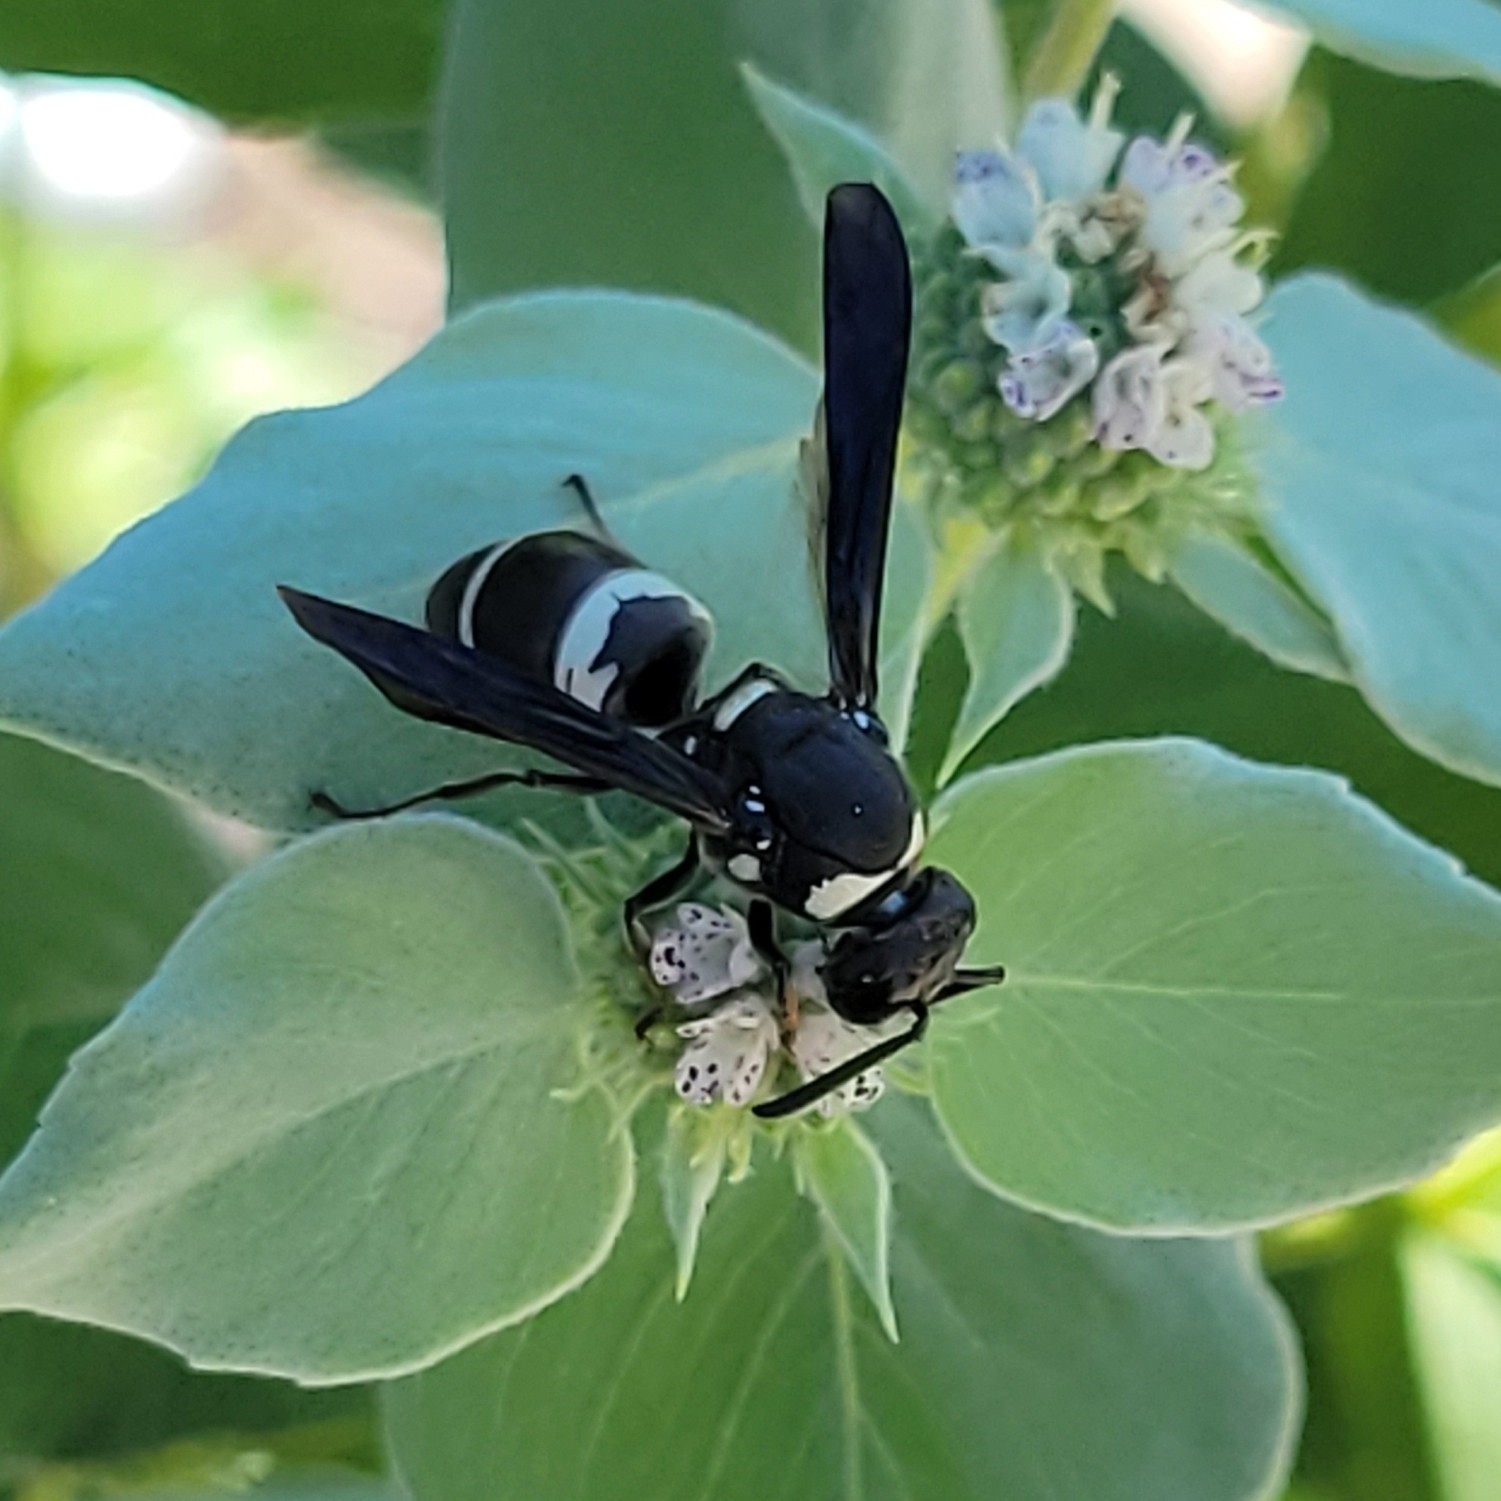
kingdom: Animalia
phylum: Arthropoda
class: Insecta
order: Hymenoptera
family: Eumenidae
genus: Euodynerus
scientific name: Euodynerus megaera
